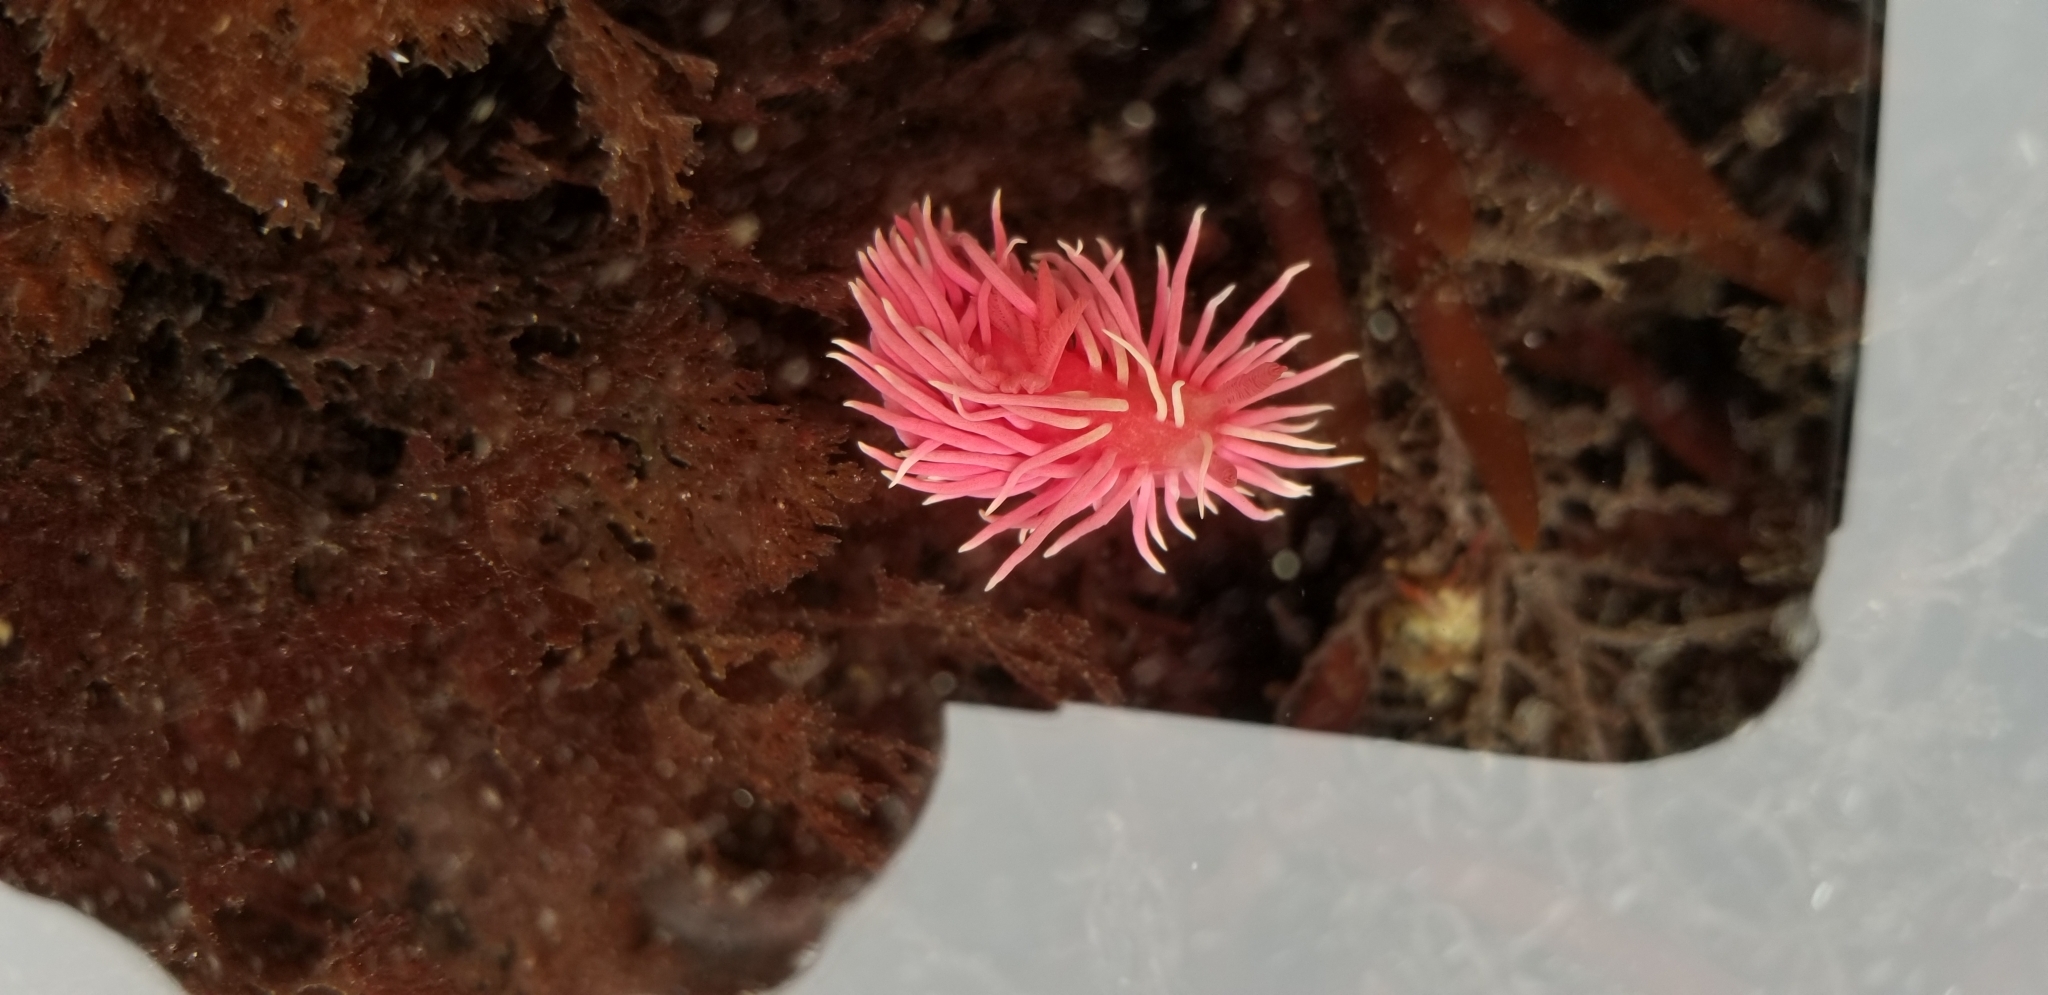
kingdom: Animalia
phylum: Mollusca
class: Gastropoda
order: Nudibranchia
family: Goniodorididae
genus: Okenia
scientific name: Okenia
